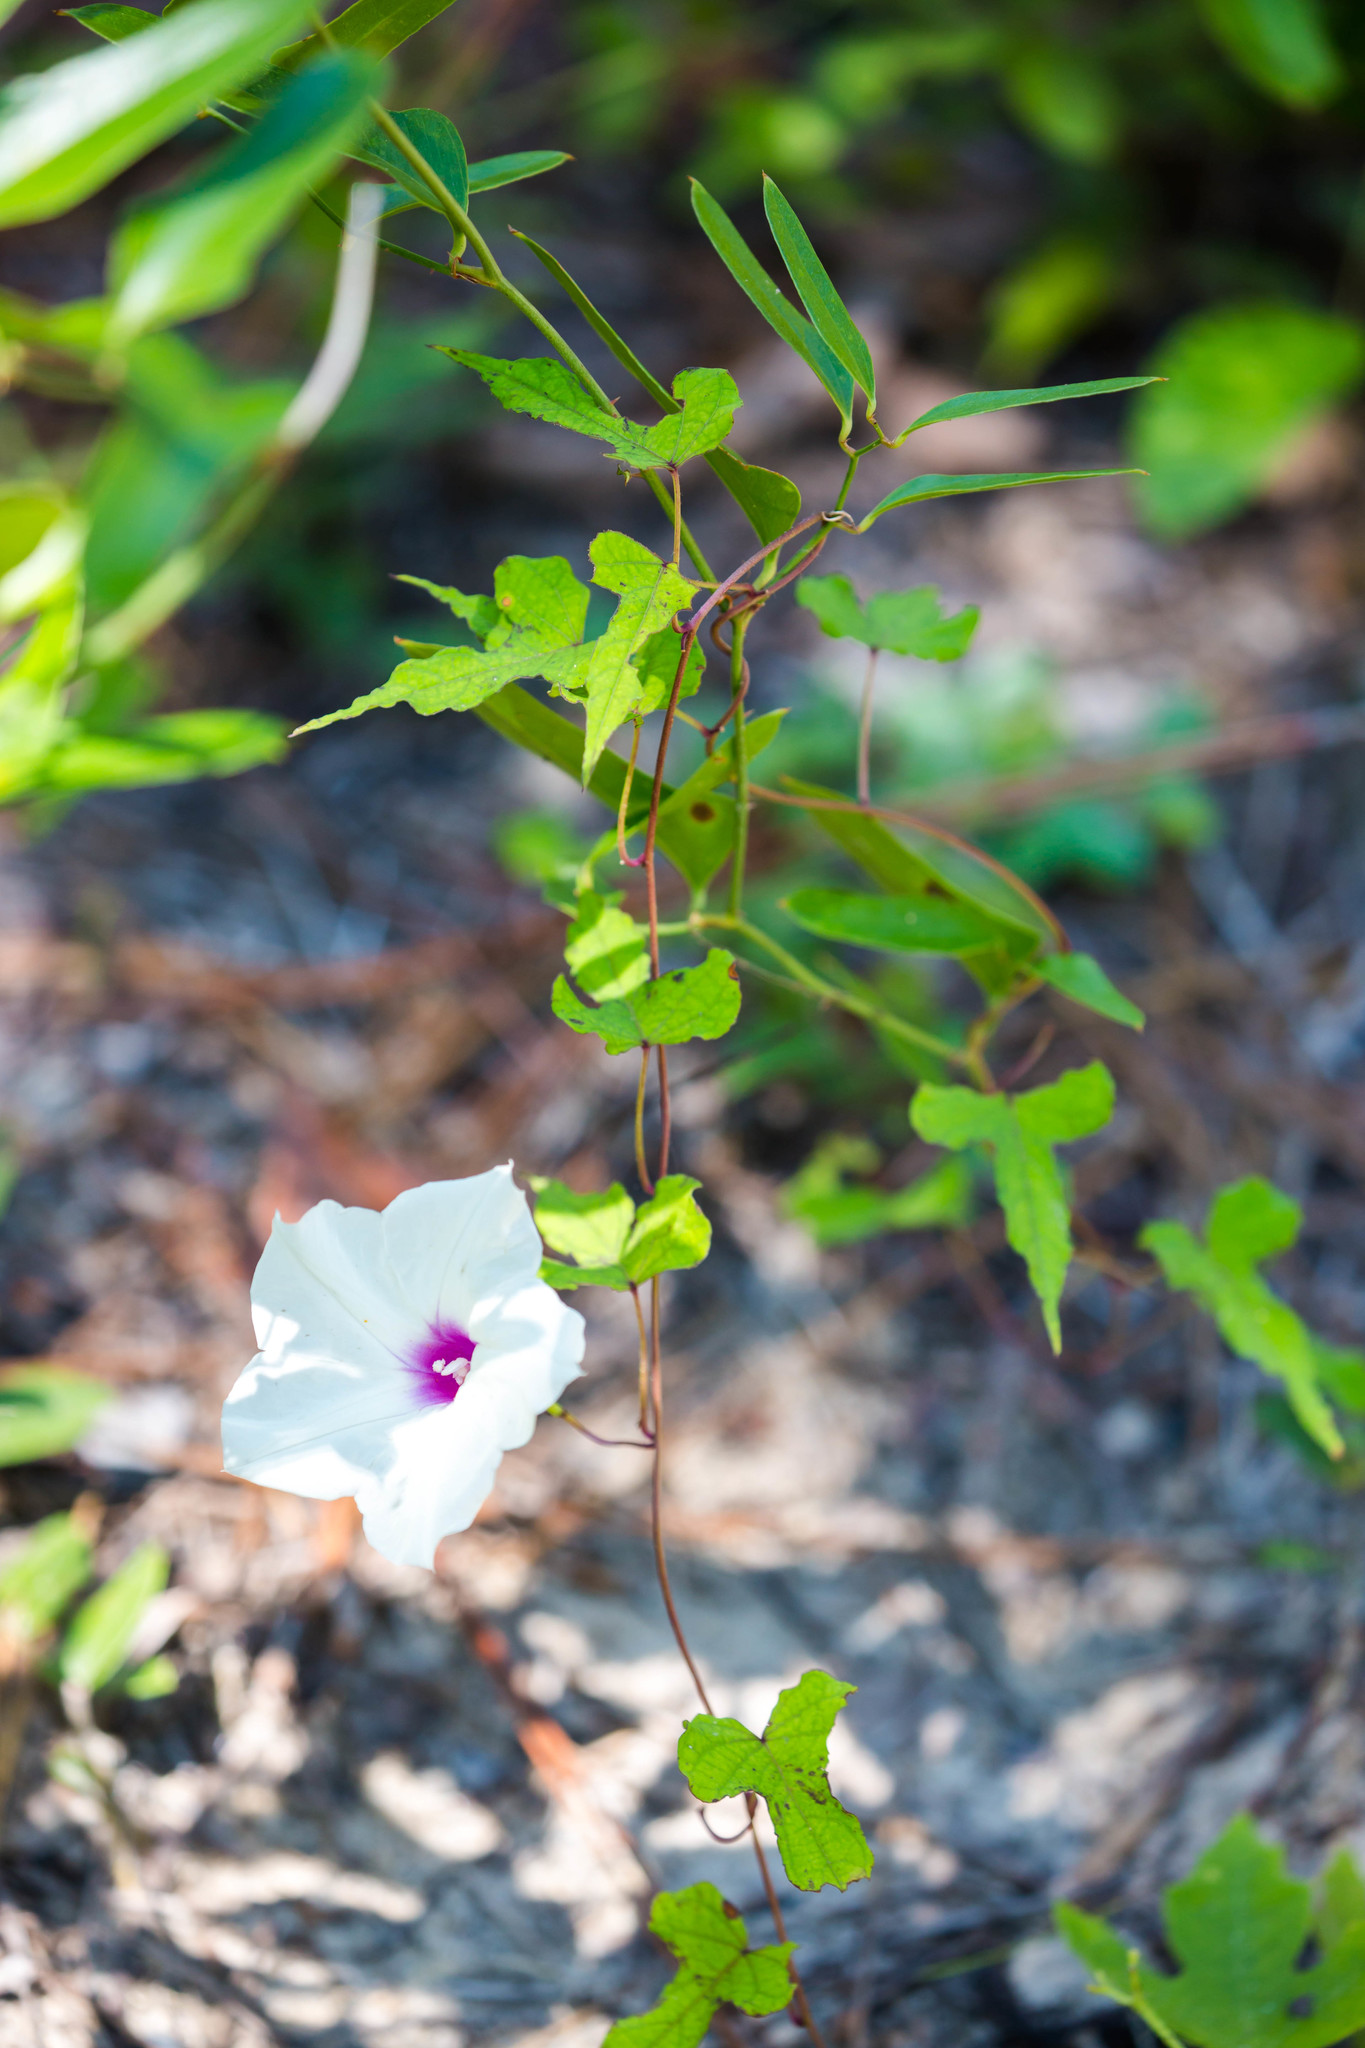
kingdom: Plantae
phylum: Tracheophyta
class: Magnoliopsida
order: Solanales
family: Convolvulaceae
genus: Ipomoea
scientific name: Ipomoea pandurata
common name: Man-of-the-earth
